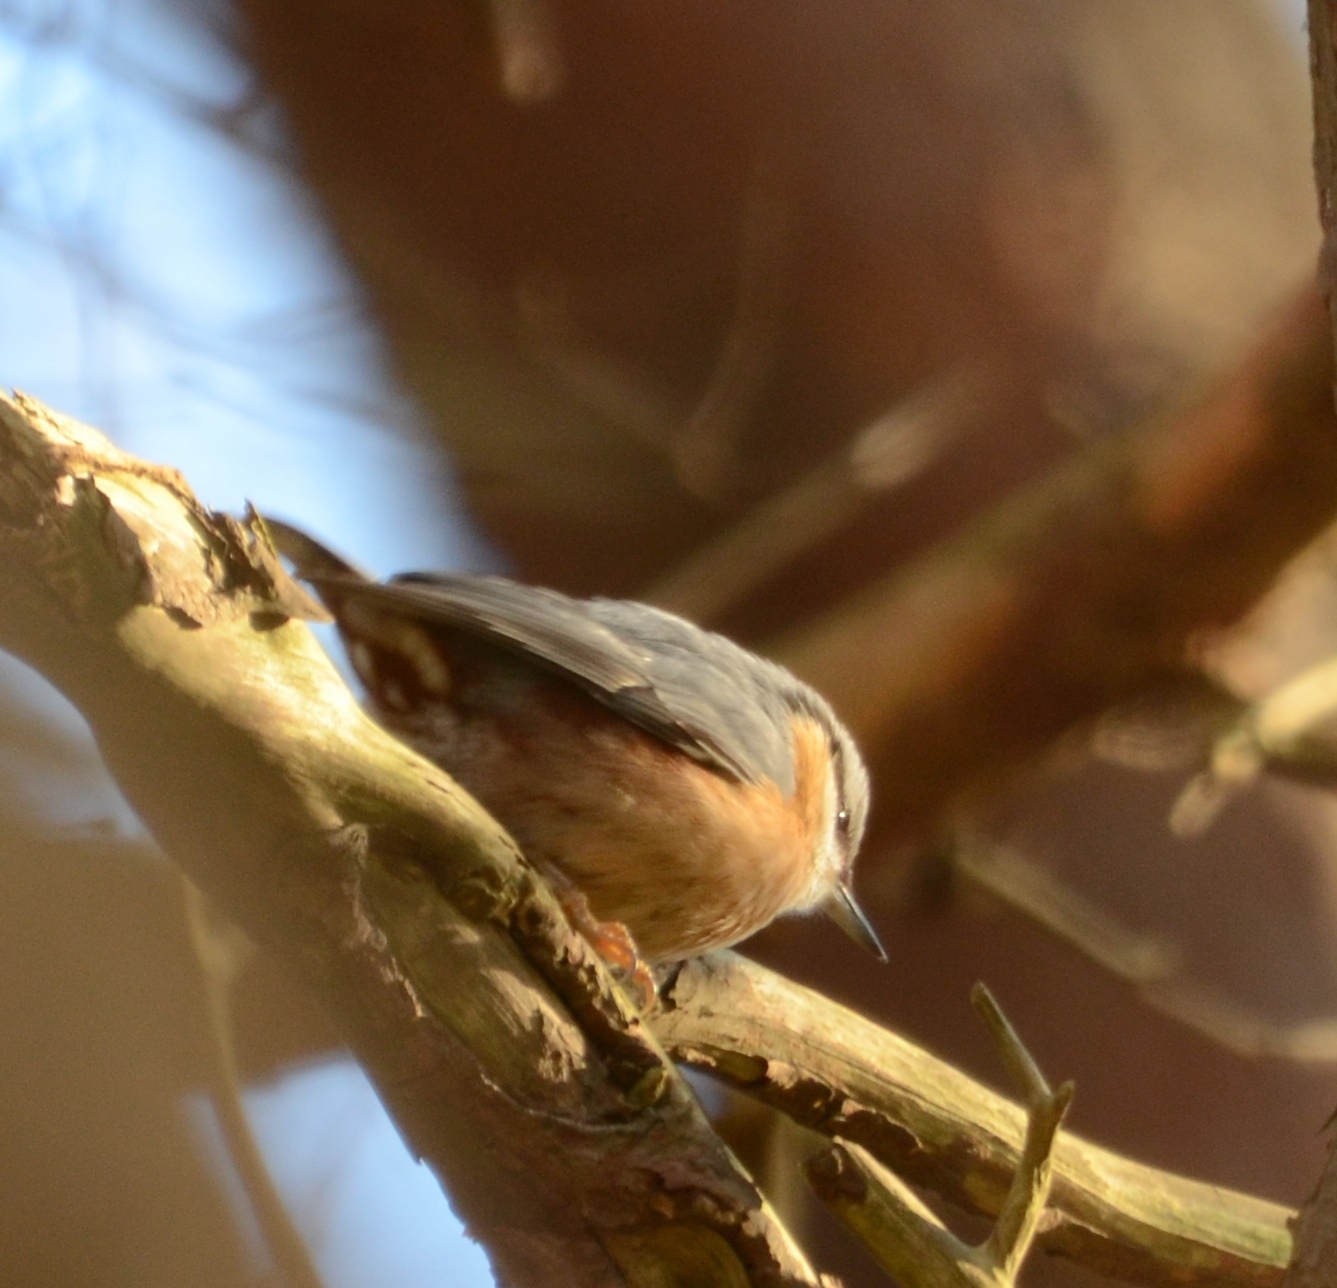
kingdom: Animalia
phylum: Chordata
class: Aves
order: Passeriformes
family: Sittidae
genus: Sitta
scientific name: Sitta europaea
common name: Eurasian nuthatch
